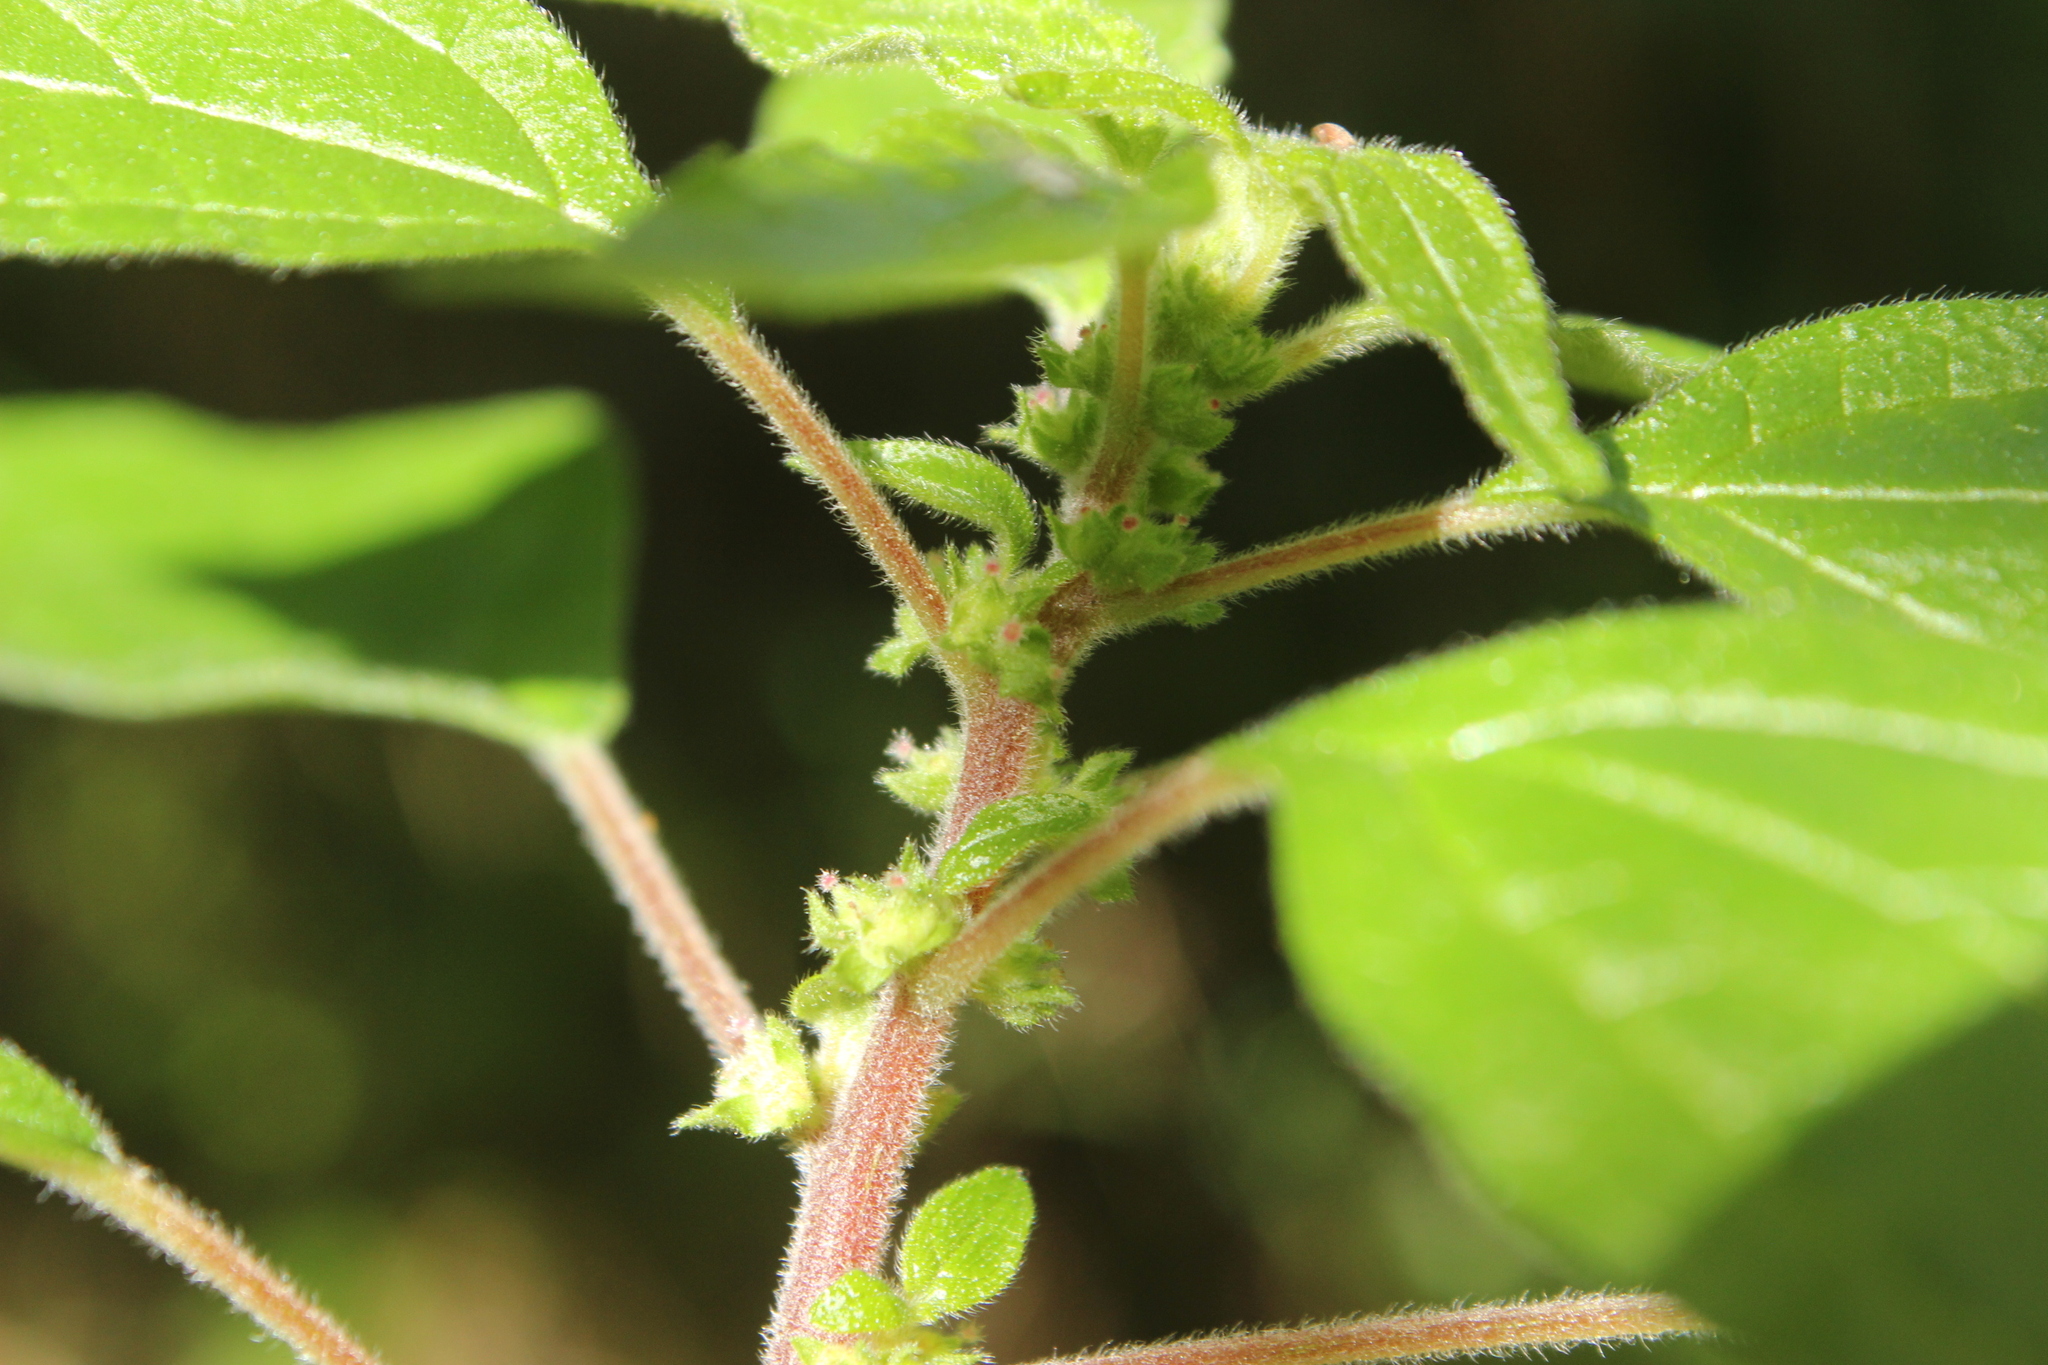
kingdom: Plantae
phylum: Tracheophyta
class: Magnoliopsida
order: Rosales
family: Urticaceae
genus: Parietaria
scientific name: Parietaria judaica
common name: Pellitory-of-the-wall
